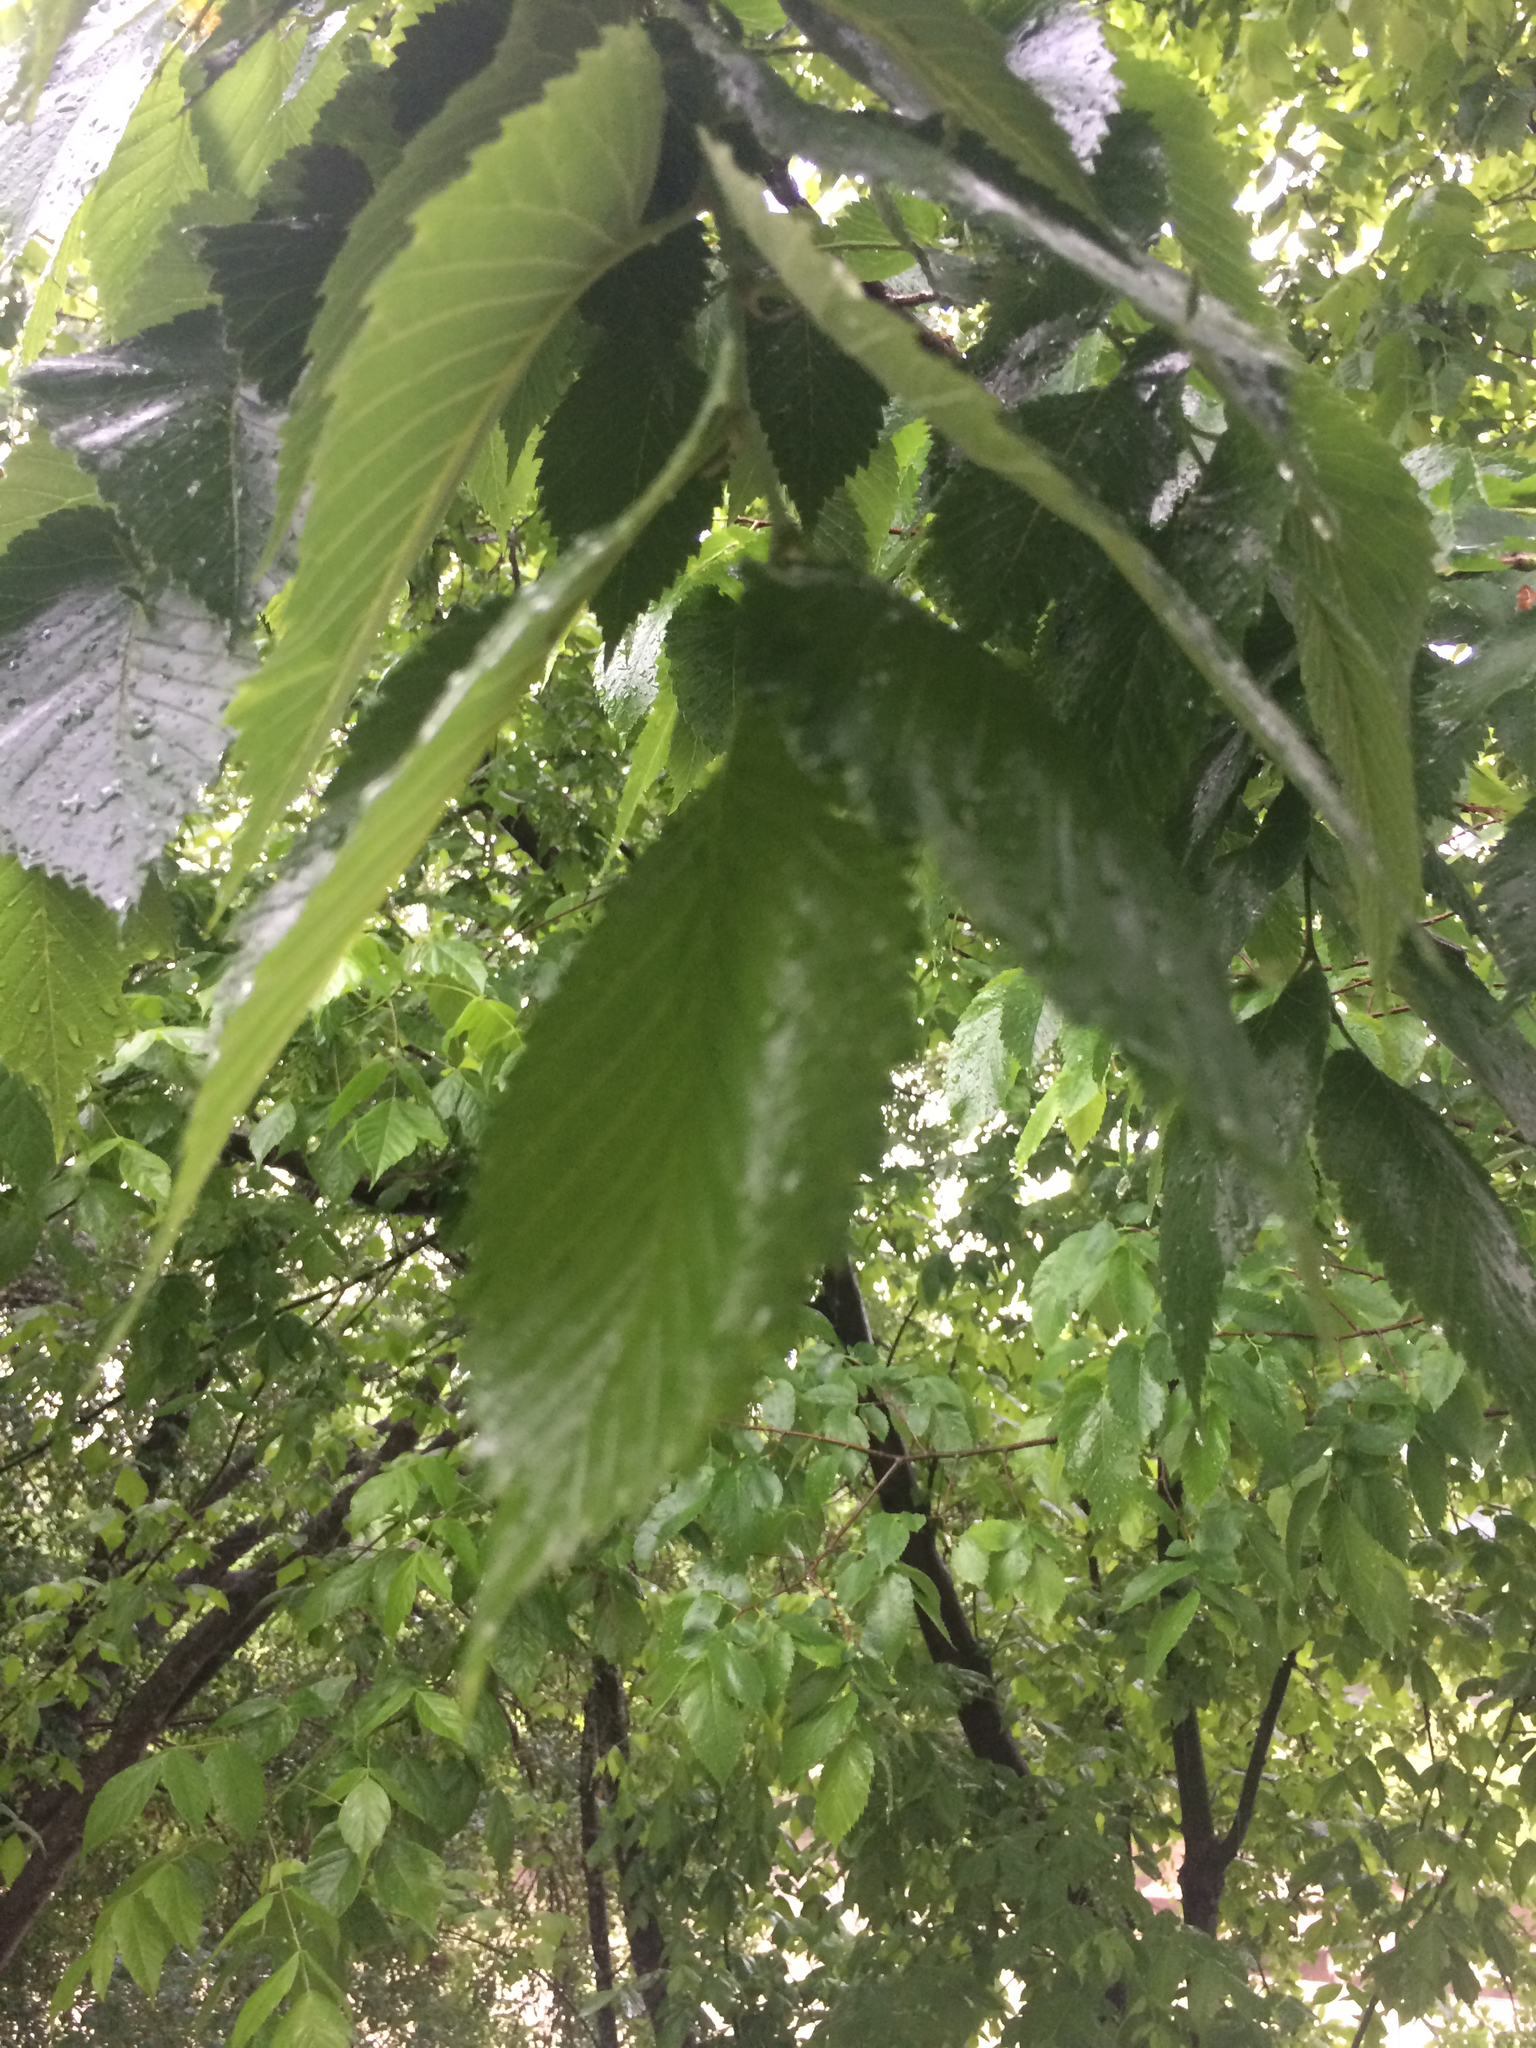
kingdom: Plantae
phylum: Tracheophyta
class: Magnoliopsida
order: Rosales
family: Ulmaceae
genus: Ulmus
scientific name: Ulmus americana
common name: American elm
